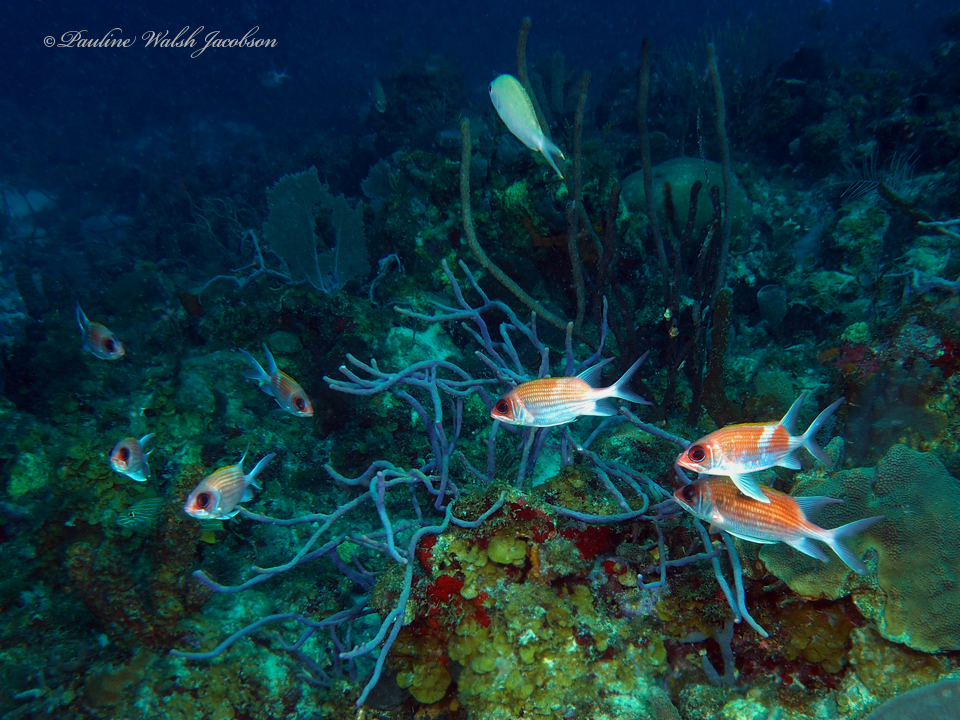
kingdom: Animalia
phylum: Chordata
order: Beryciformes
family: Holocentridae
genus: Holocentrus
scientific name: Holocentrus adscensionis
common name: Squirrelfish
